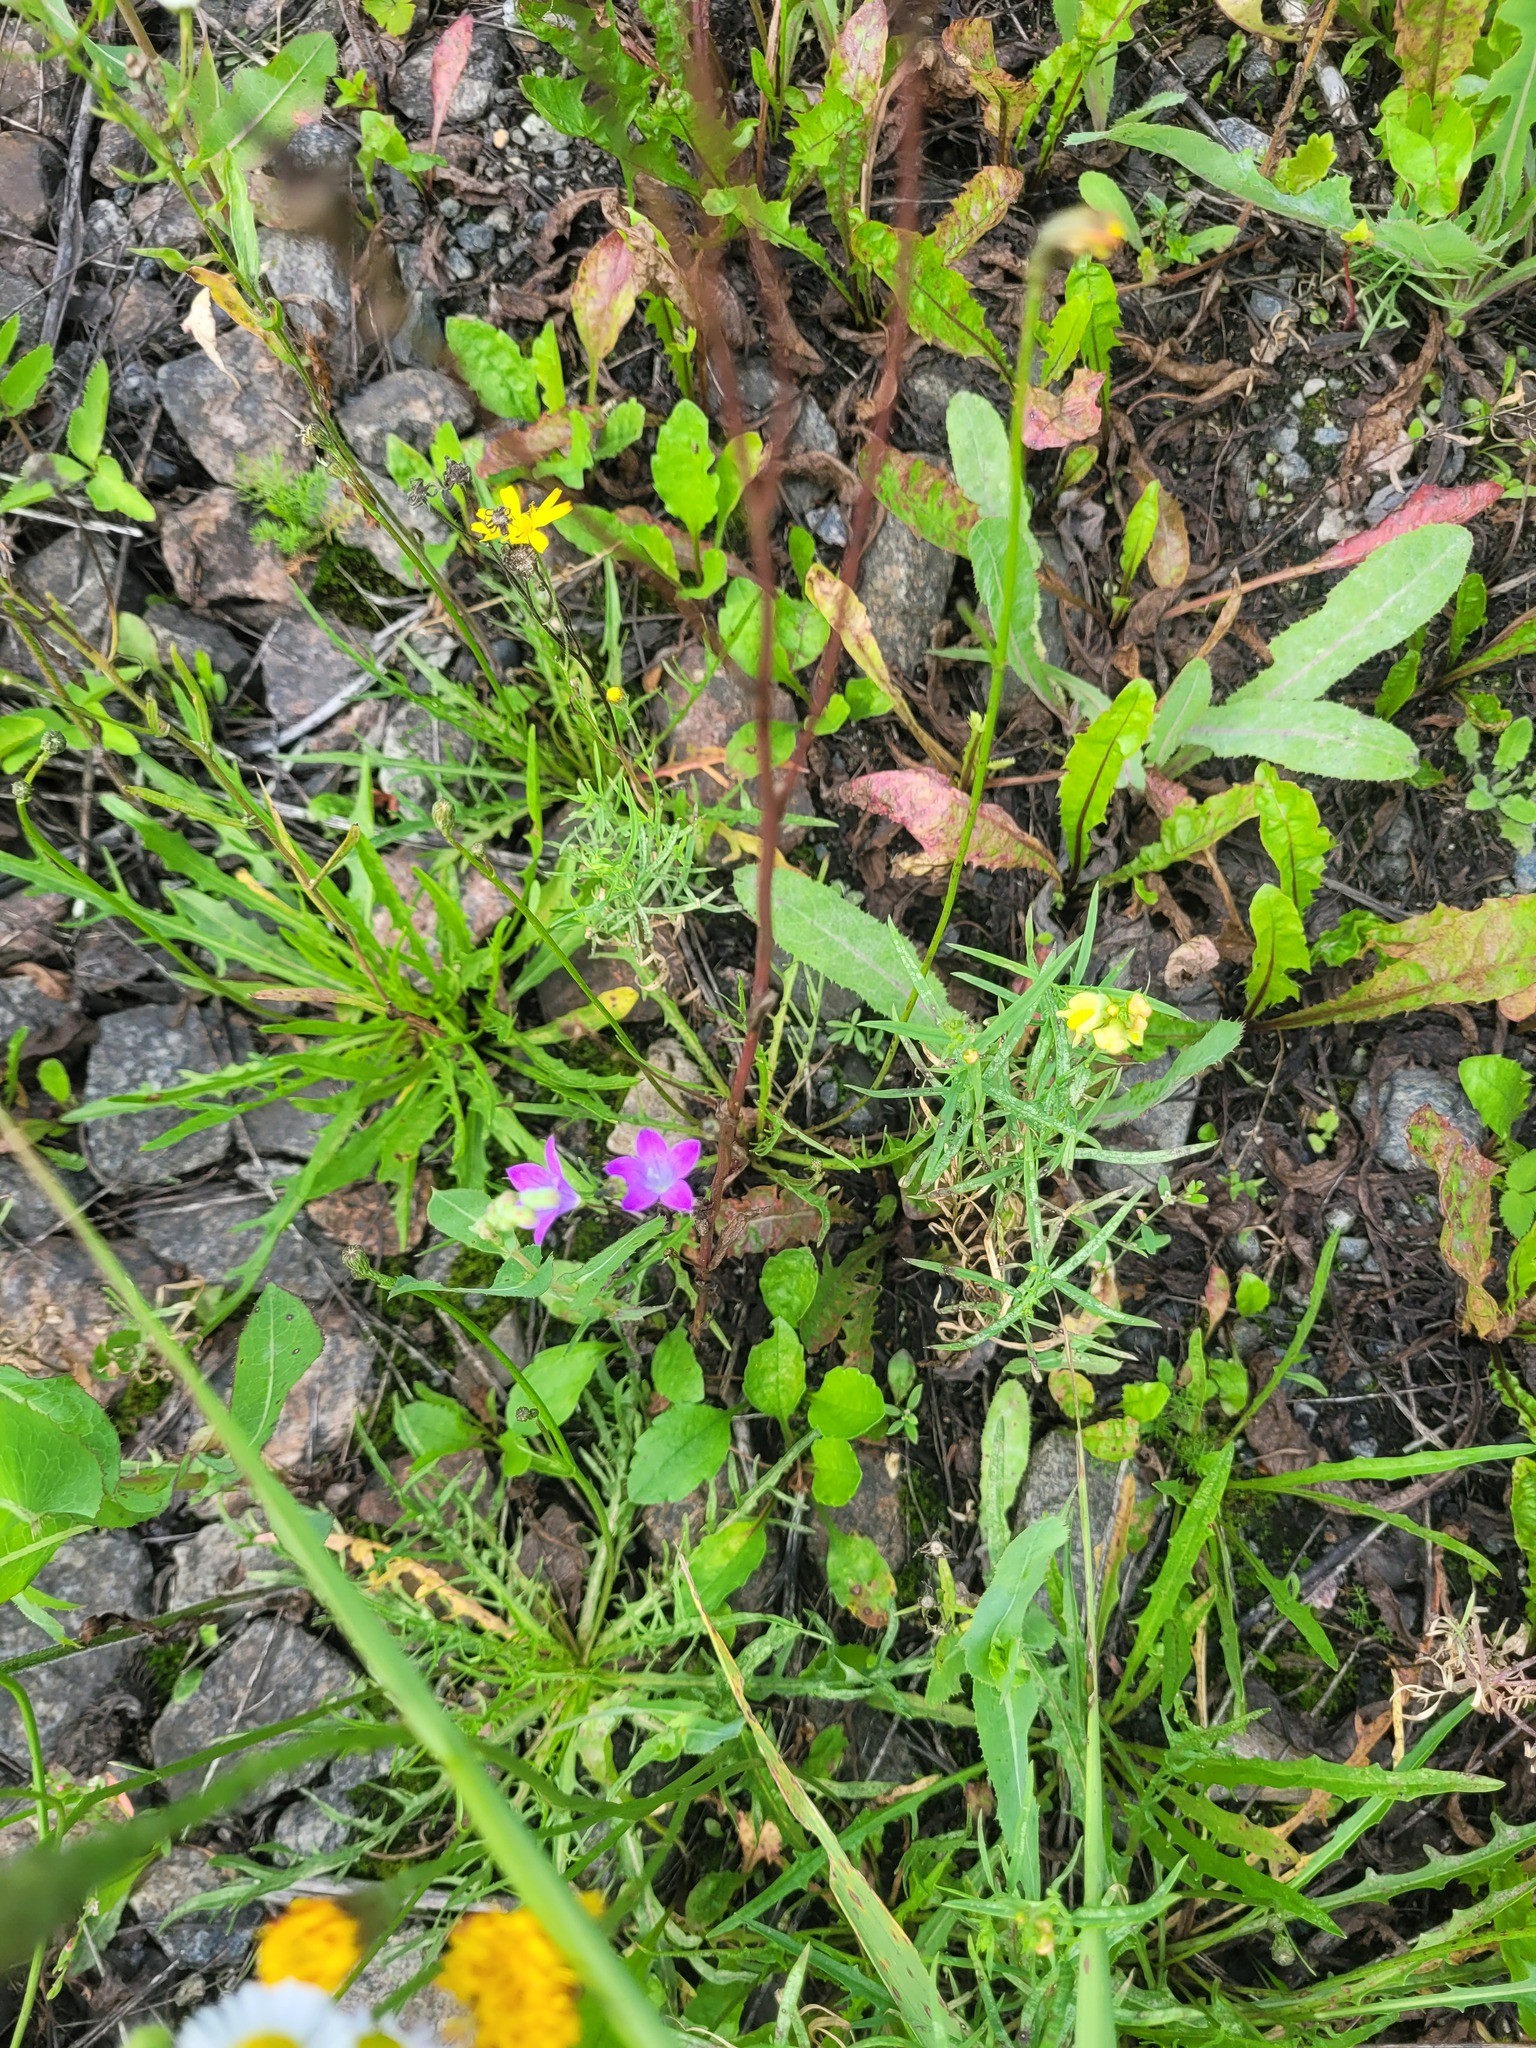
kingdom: Plantae
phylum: Tracheophyta
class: Magnoliopsida
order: Asterales
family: Campanulaceae
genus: Campanula
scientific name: Campanula patula
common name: Spreading bellflower
